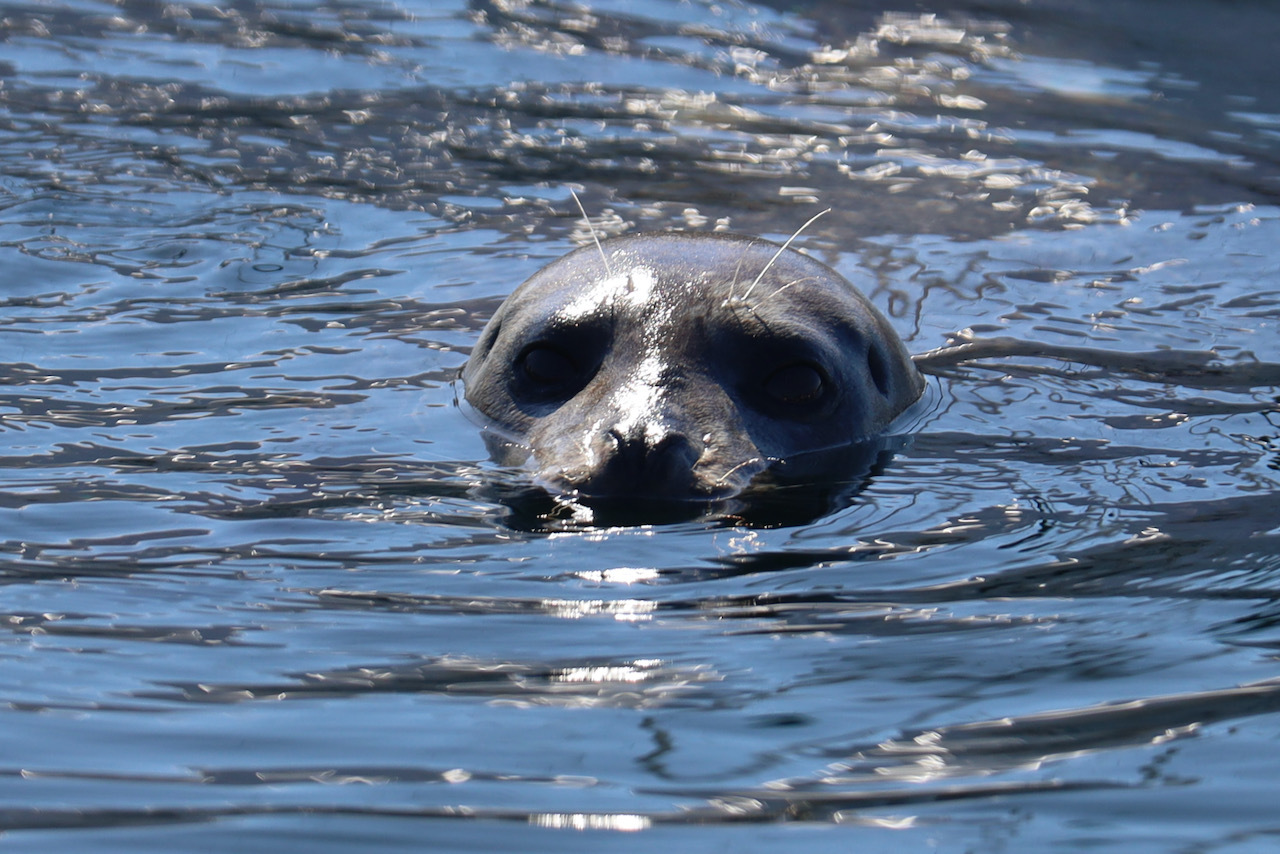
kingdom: Animalia
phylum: Chordata
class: Mammalia
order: Carnivora
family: Phocidae
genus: Phoca
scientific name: Phoca vitulina
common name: Harbor seal
